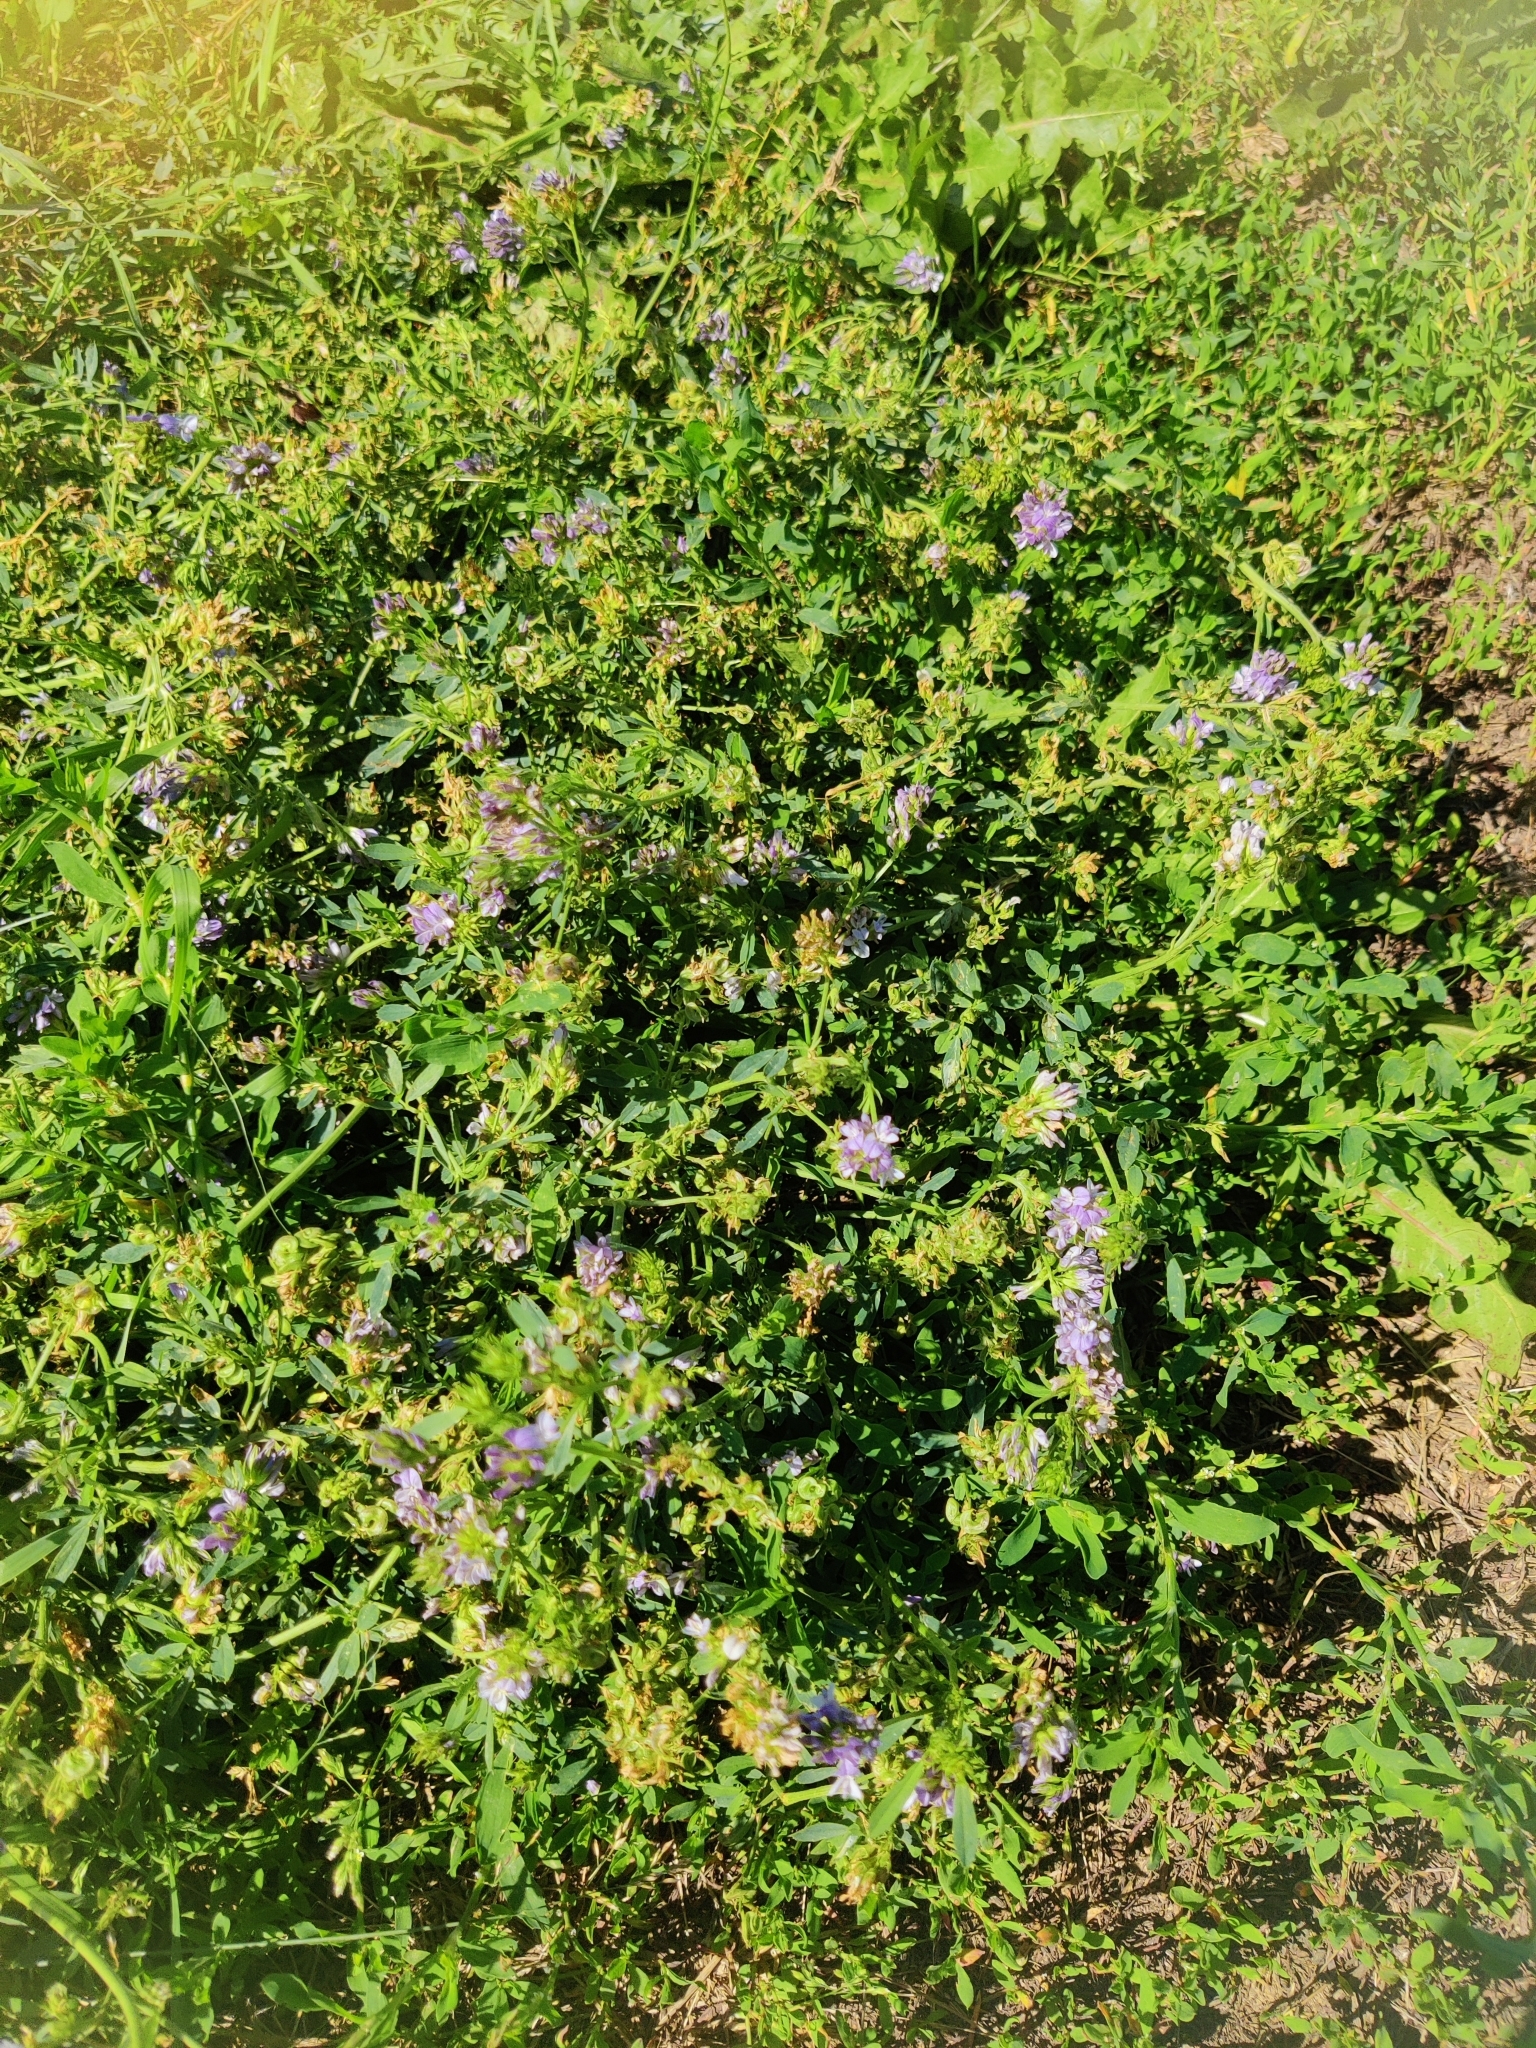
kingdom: Plantae
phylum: Tracheophyta
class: Magnoliopsida
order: Fabales
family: Fabaceae
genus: Medicago
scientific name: Medicago sativa
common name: Alfalfa
